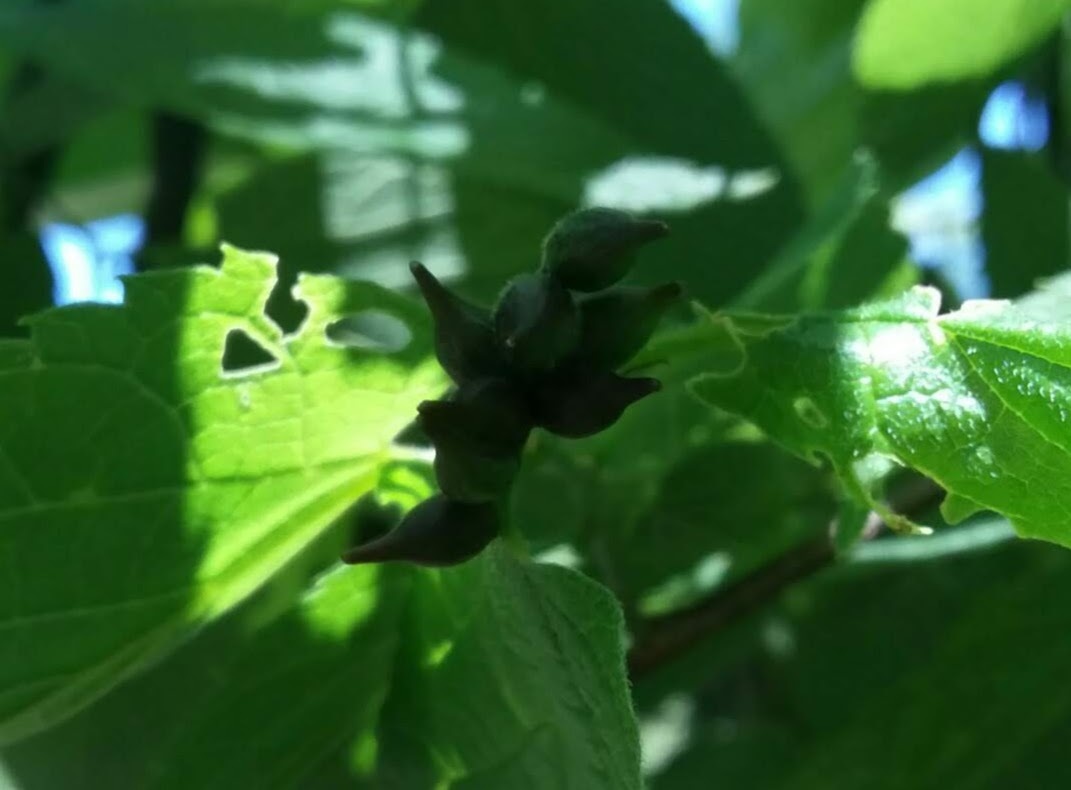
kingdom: Animalia
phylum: Arthropoda
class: Insecta
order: Diptera
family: Cecidomyiidae
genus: Celticecis
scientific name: Celticecis ovata
